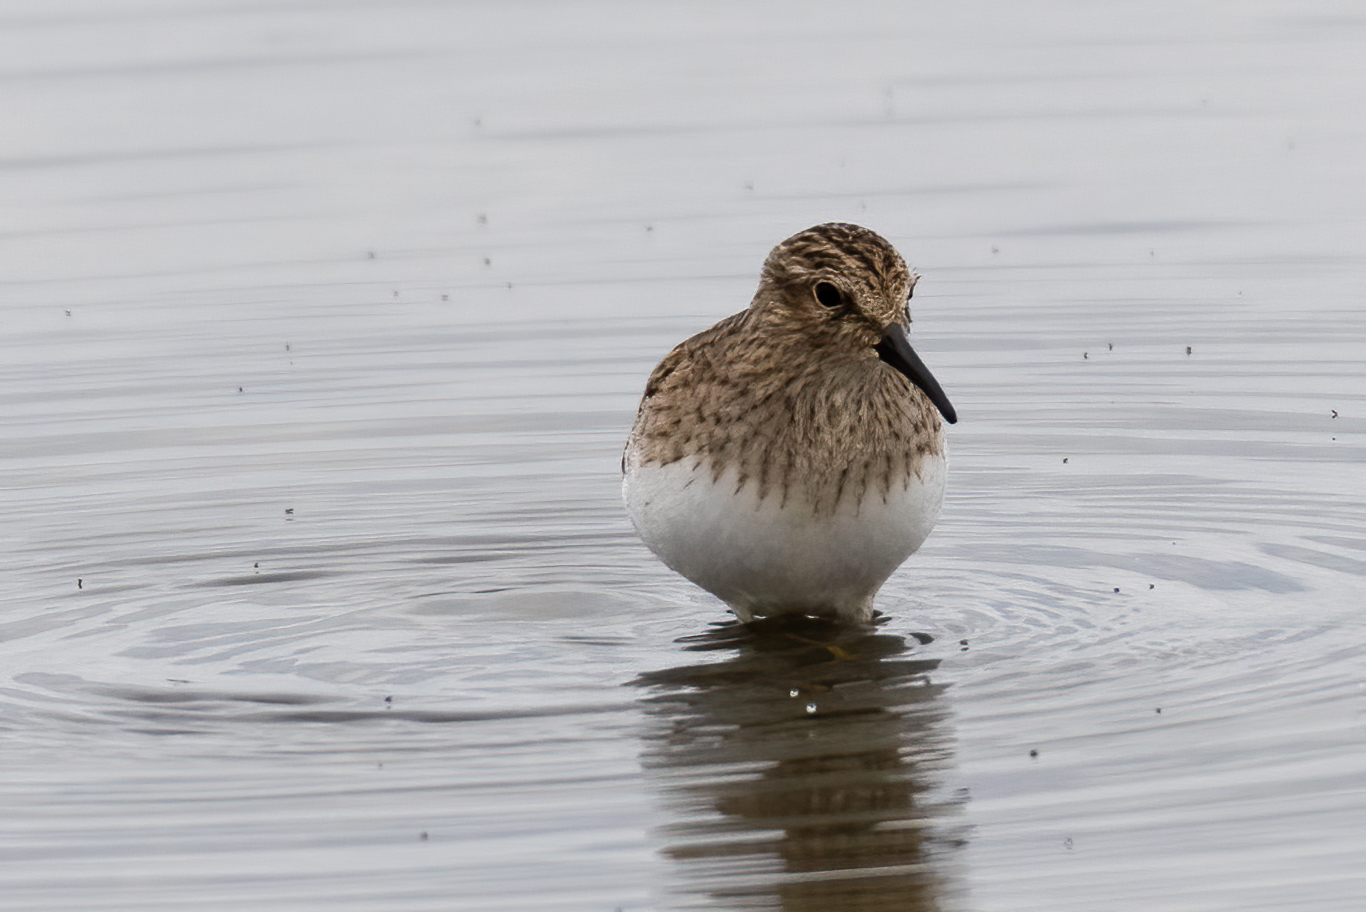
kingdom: Animalia
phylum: Chordata
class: Aves
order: Charadriiformes
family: Scolopacidae
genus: Calidris
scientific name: Calidris minutilla
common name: Least sandpiper
